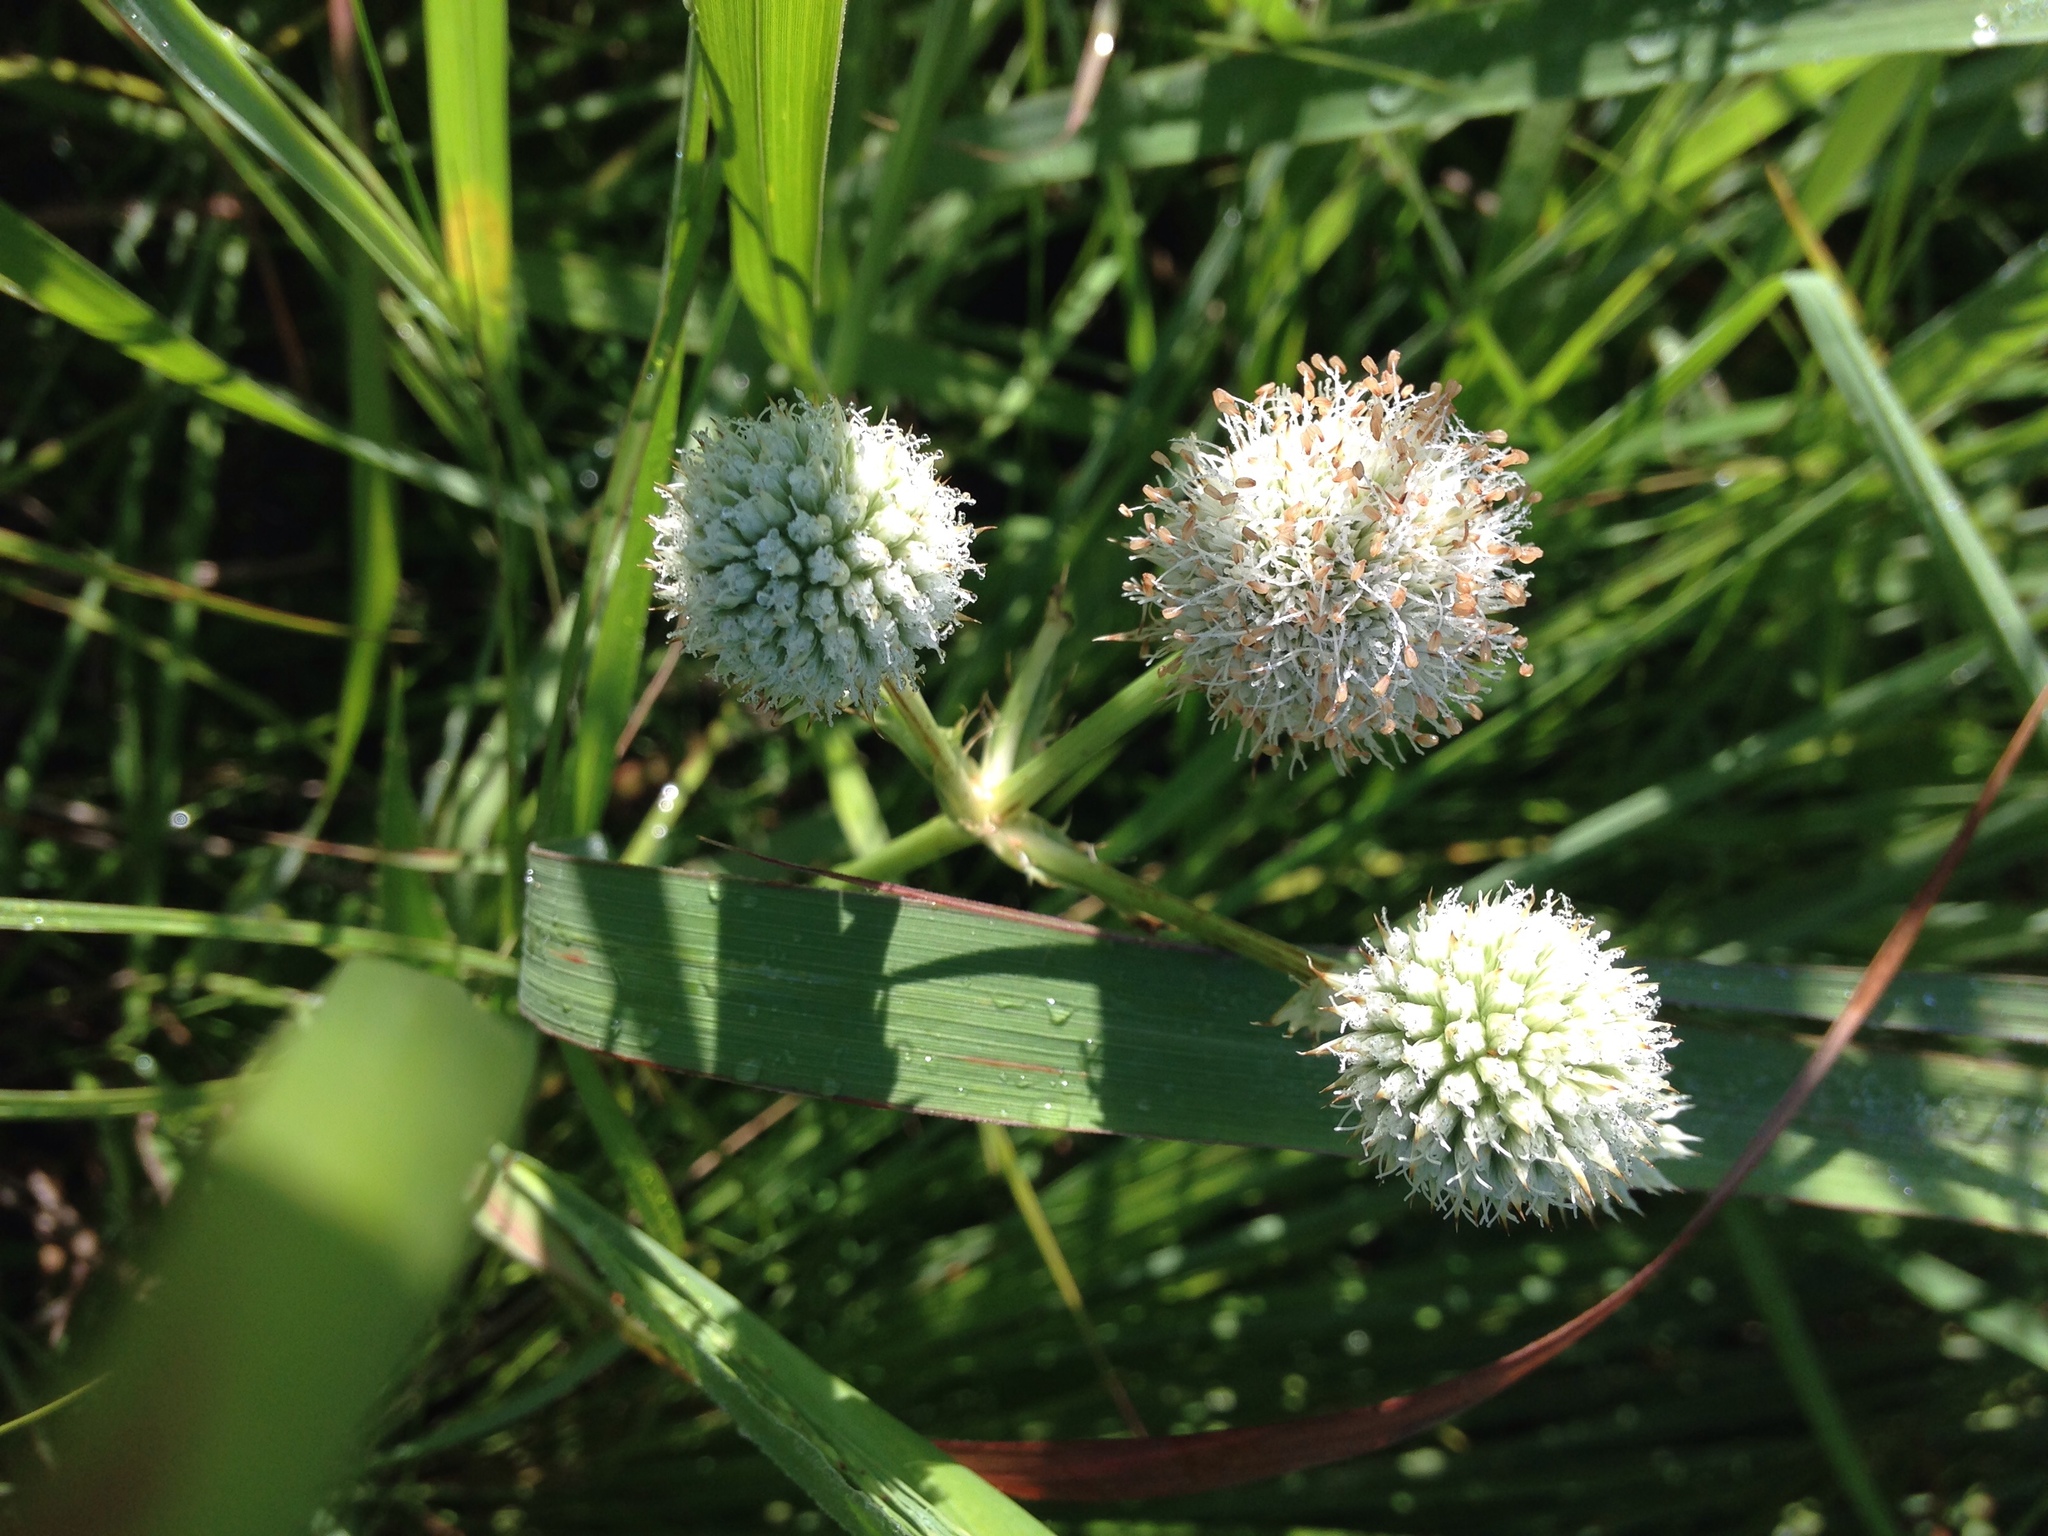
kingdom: Plantae
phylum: Tracheophyta
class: Magnoliopsida
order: Apiales
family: Apiaceae
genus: Eryngium
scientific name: Eryngium yuccifolium
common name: Button eryngo
